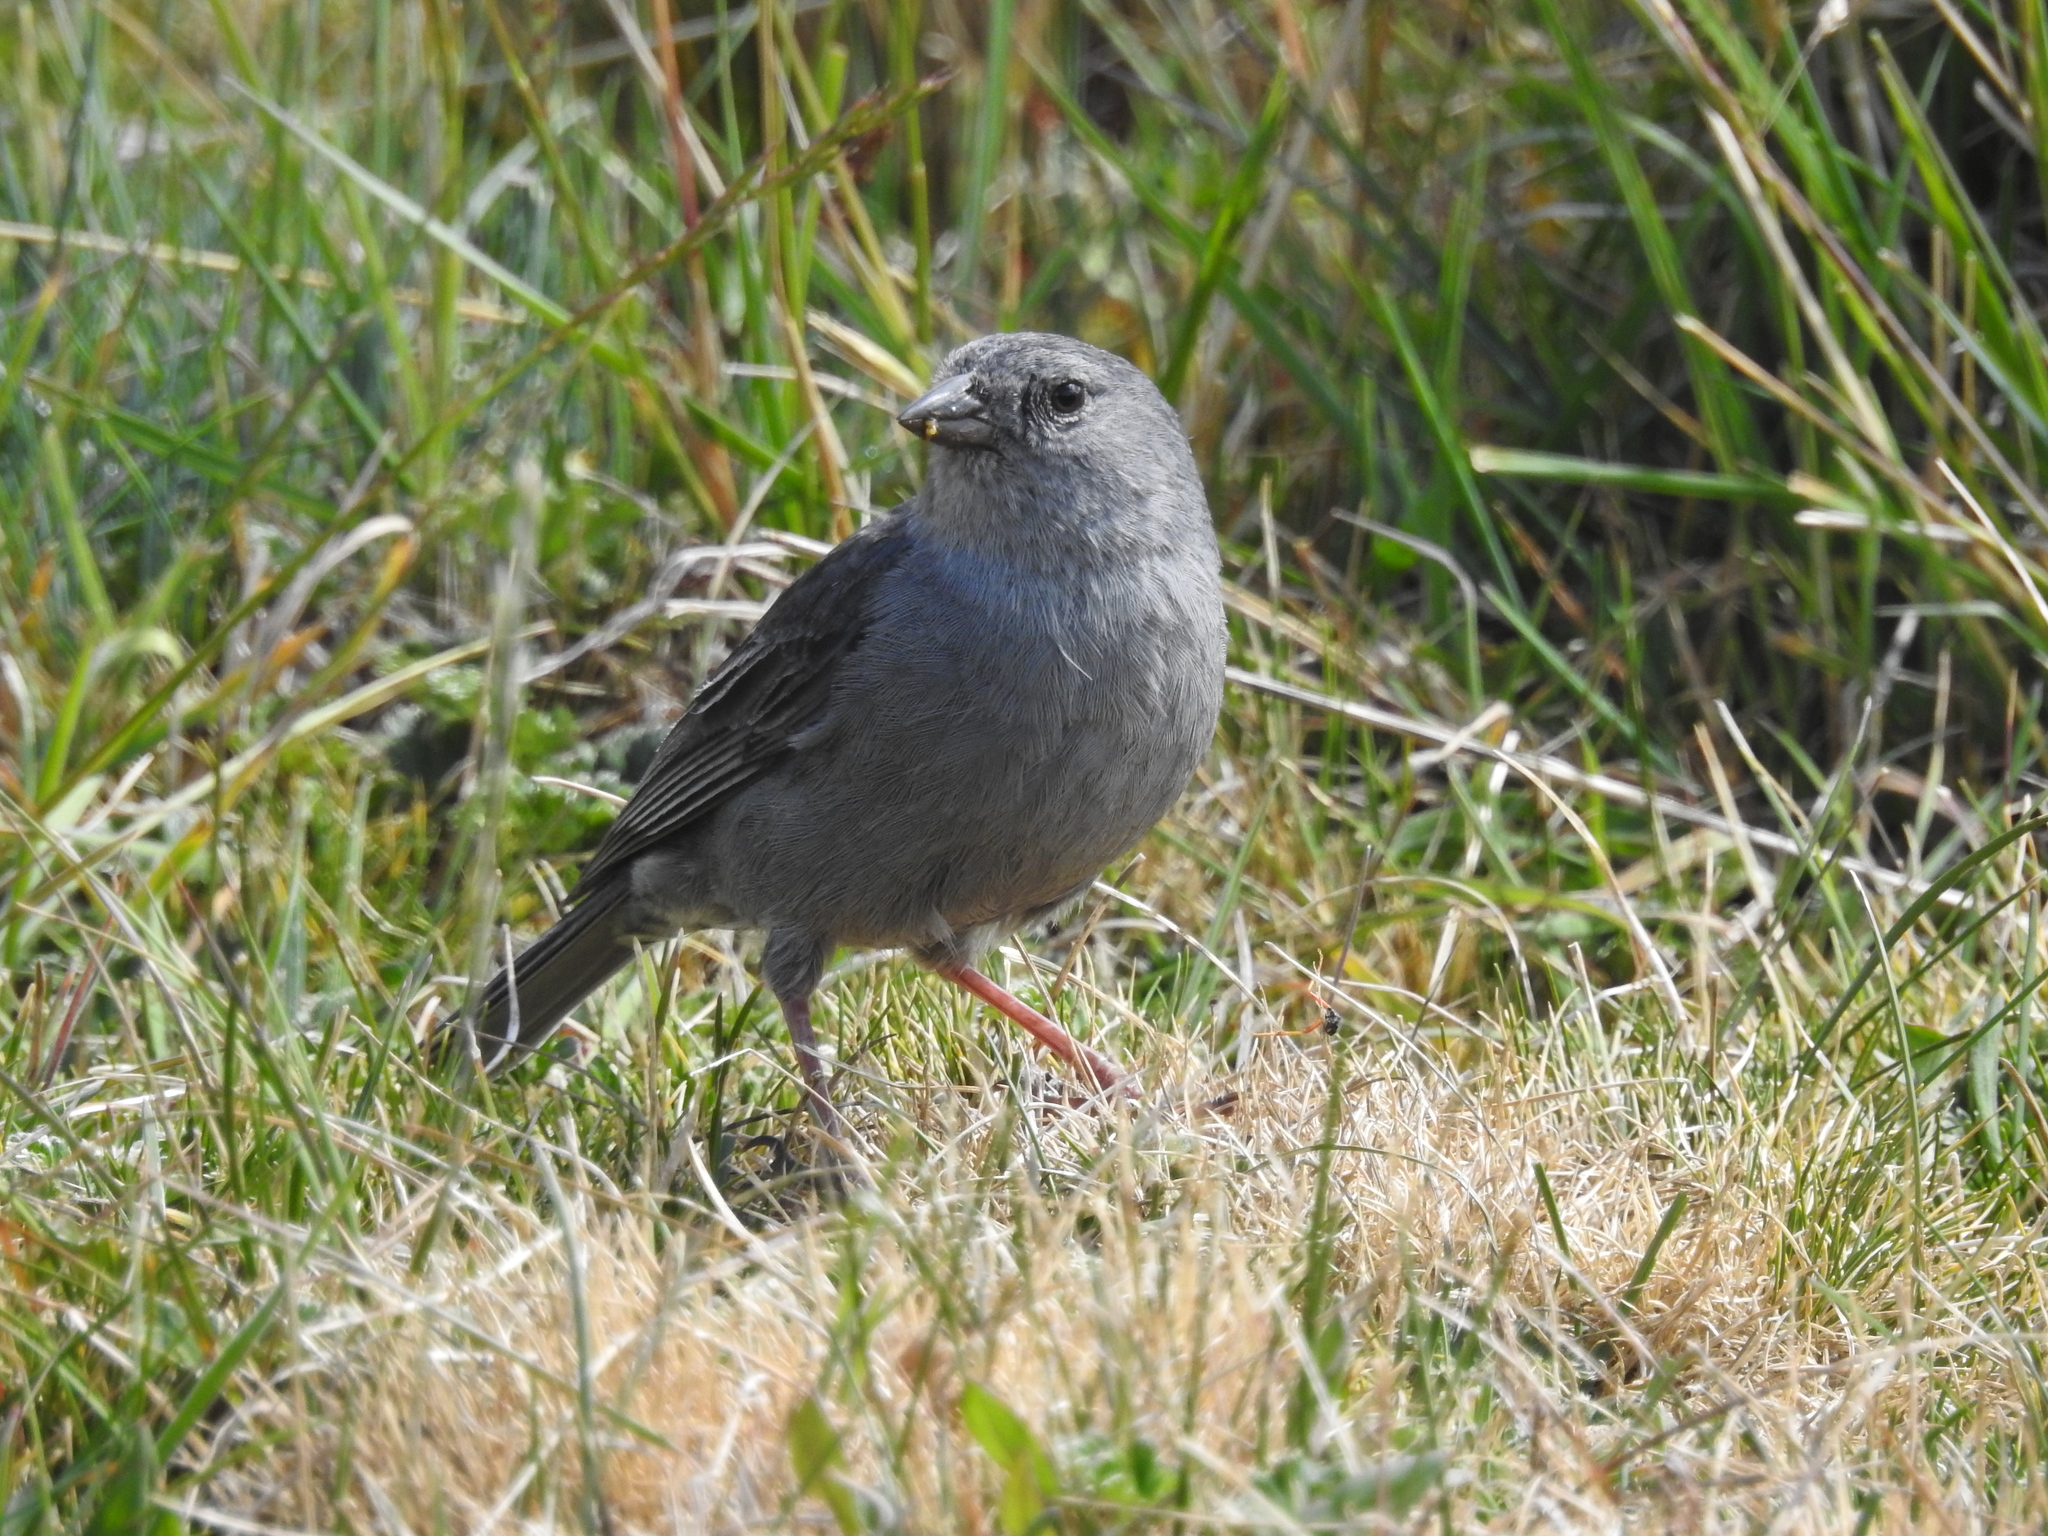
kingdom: Animalia
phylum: Chordata
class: Aves
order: Passeriformes
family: Thraupidae
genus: Geospizopsis
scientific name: Geospizopsis unicolor
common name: Plumbeous sierra-finch
